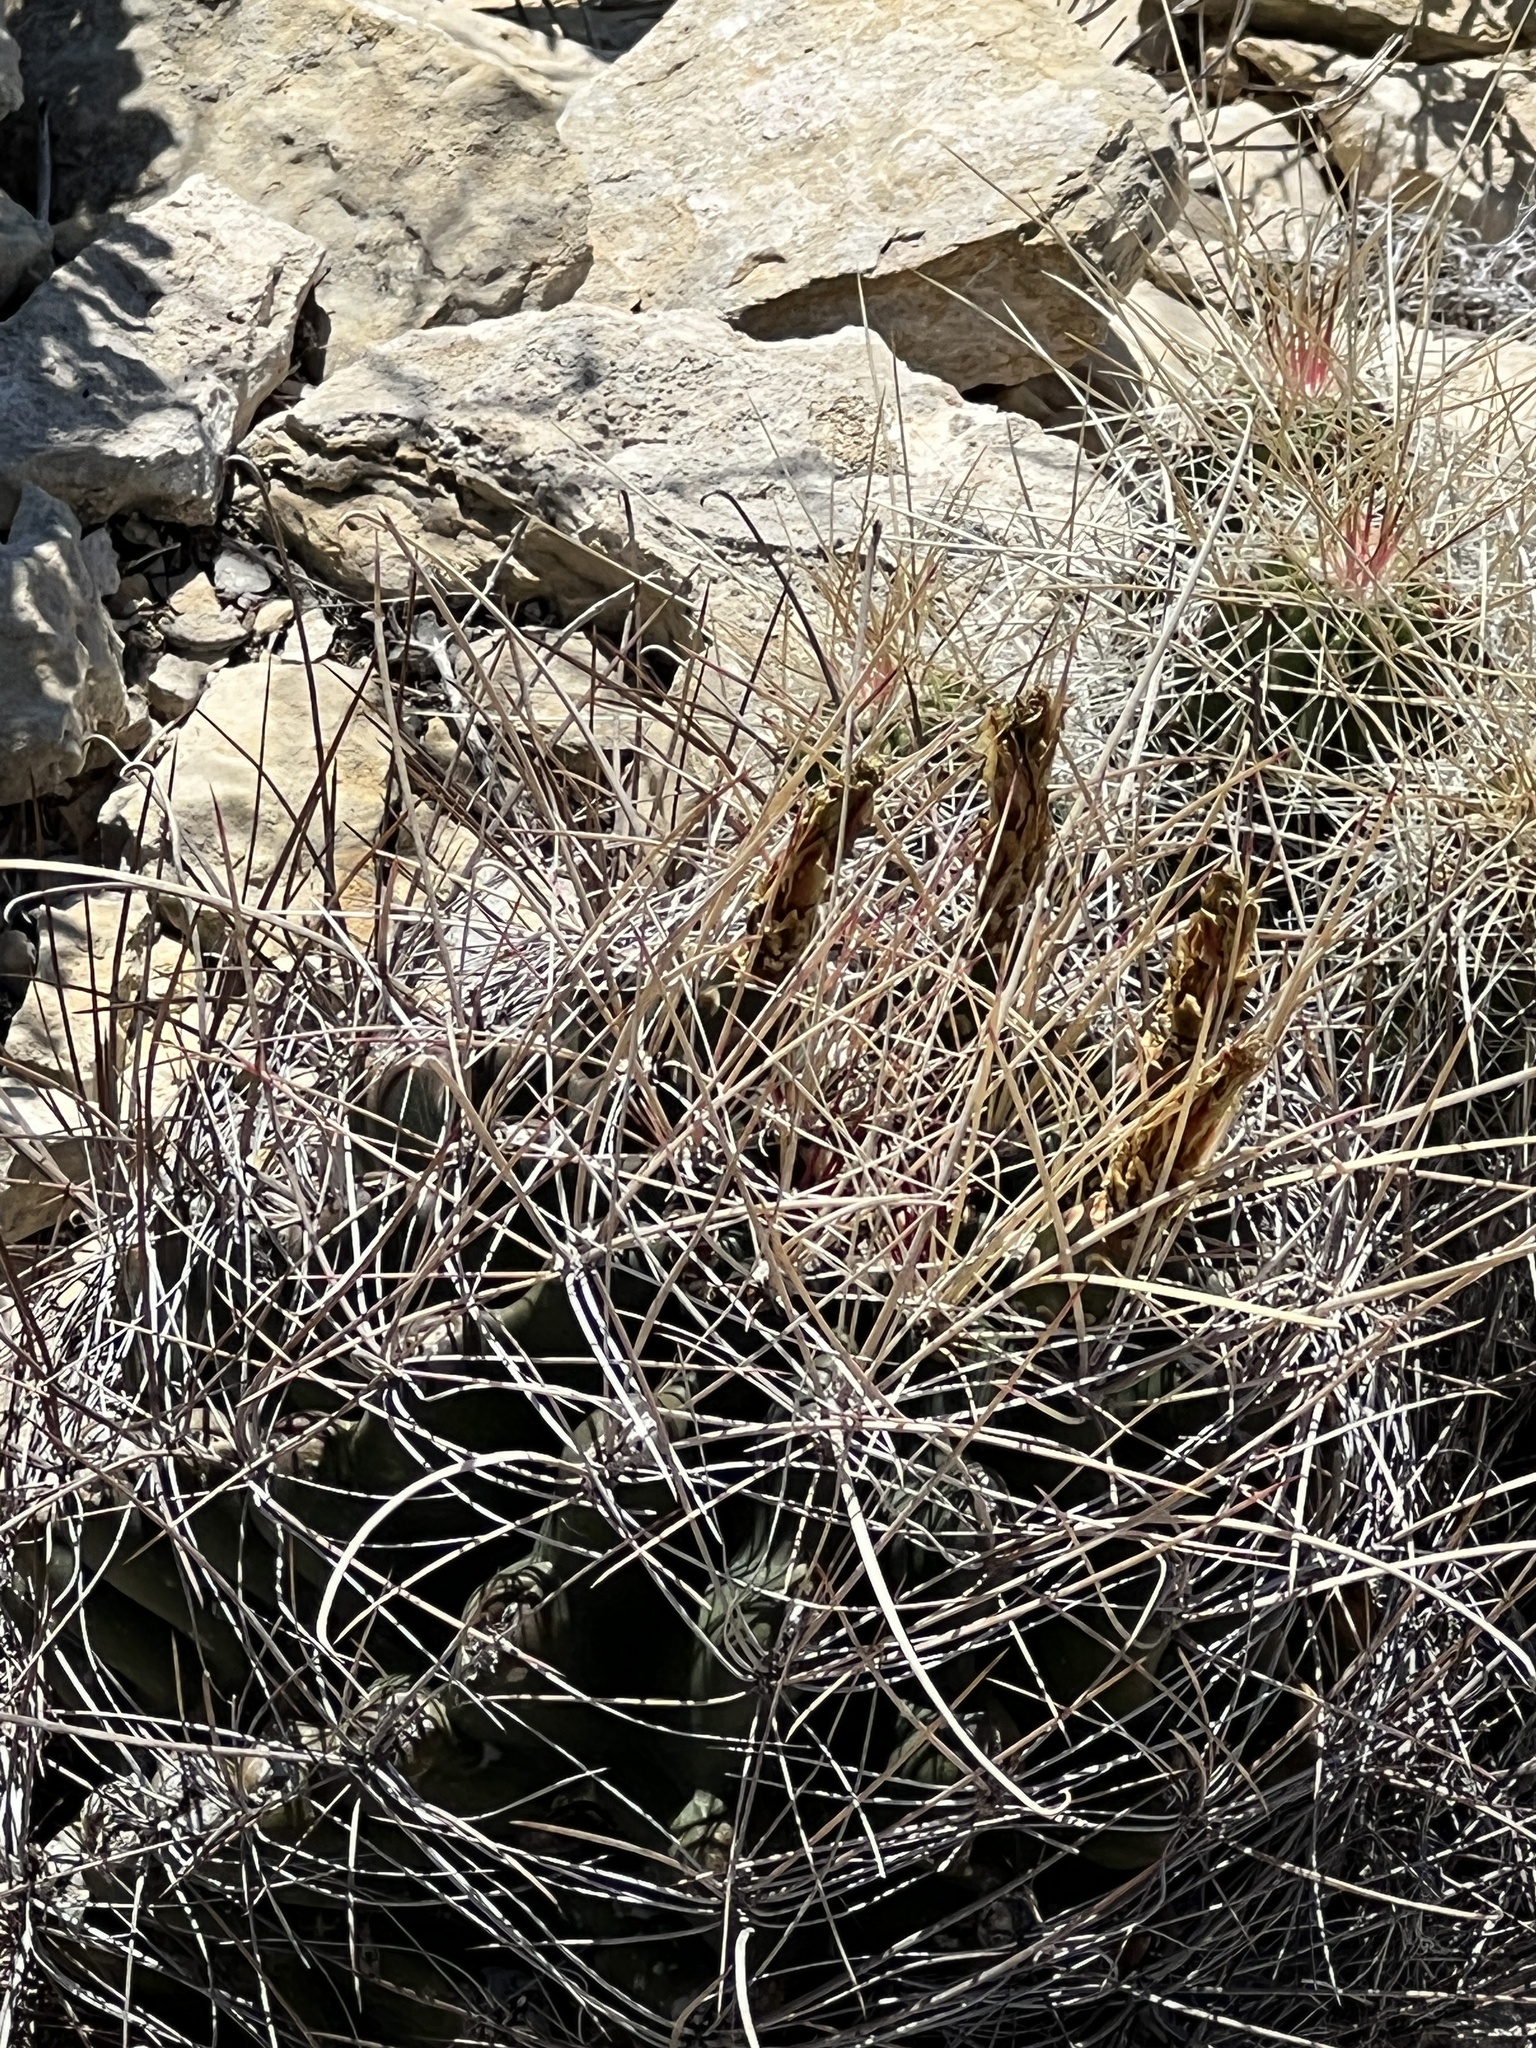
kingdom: Plantae
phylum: Tracheophyta
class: Magnoliopsida
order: Caryophyllales
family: Cactaceae
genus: Bisnaga
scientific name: Bisnaga hamatacantha
